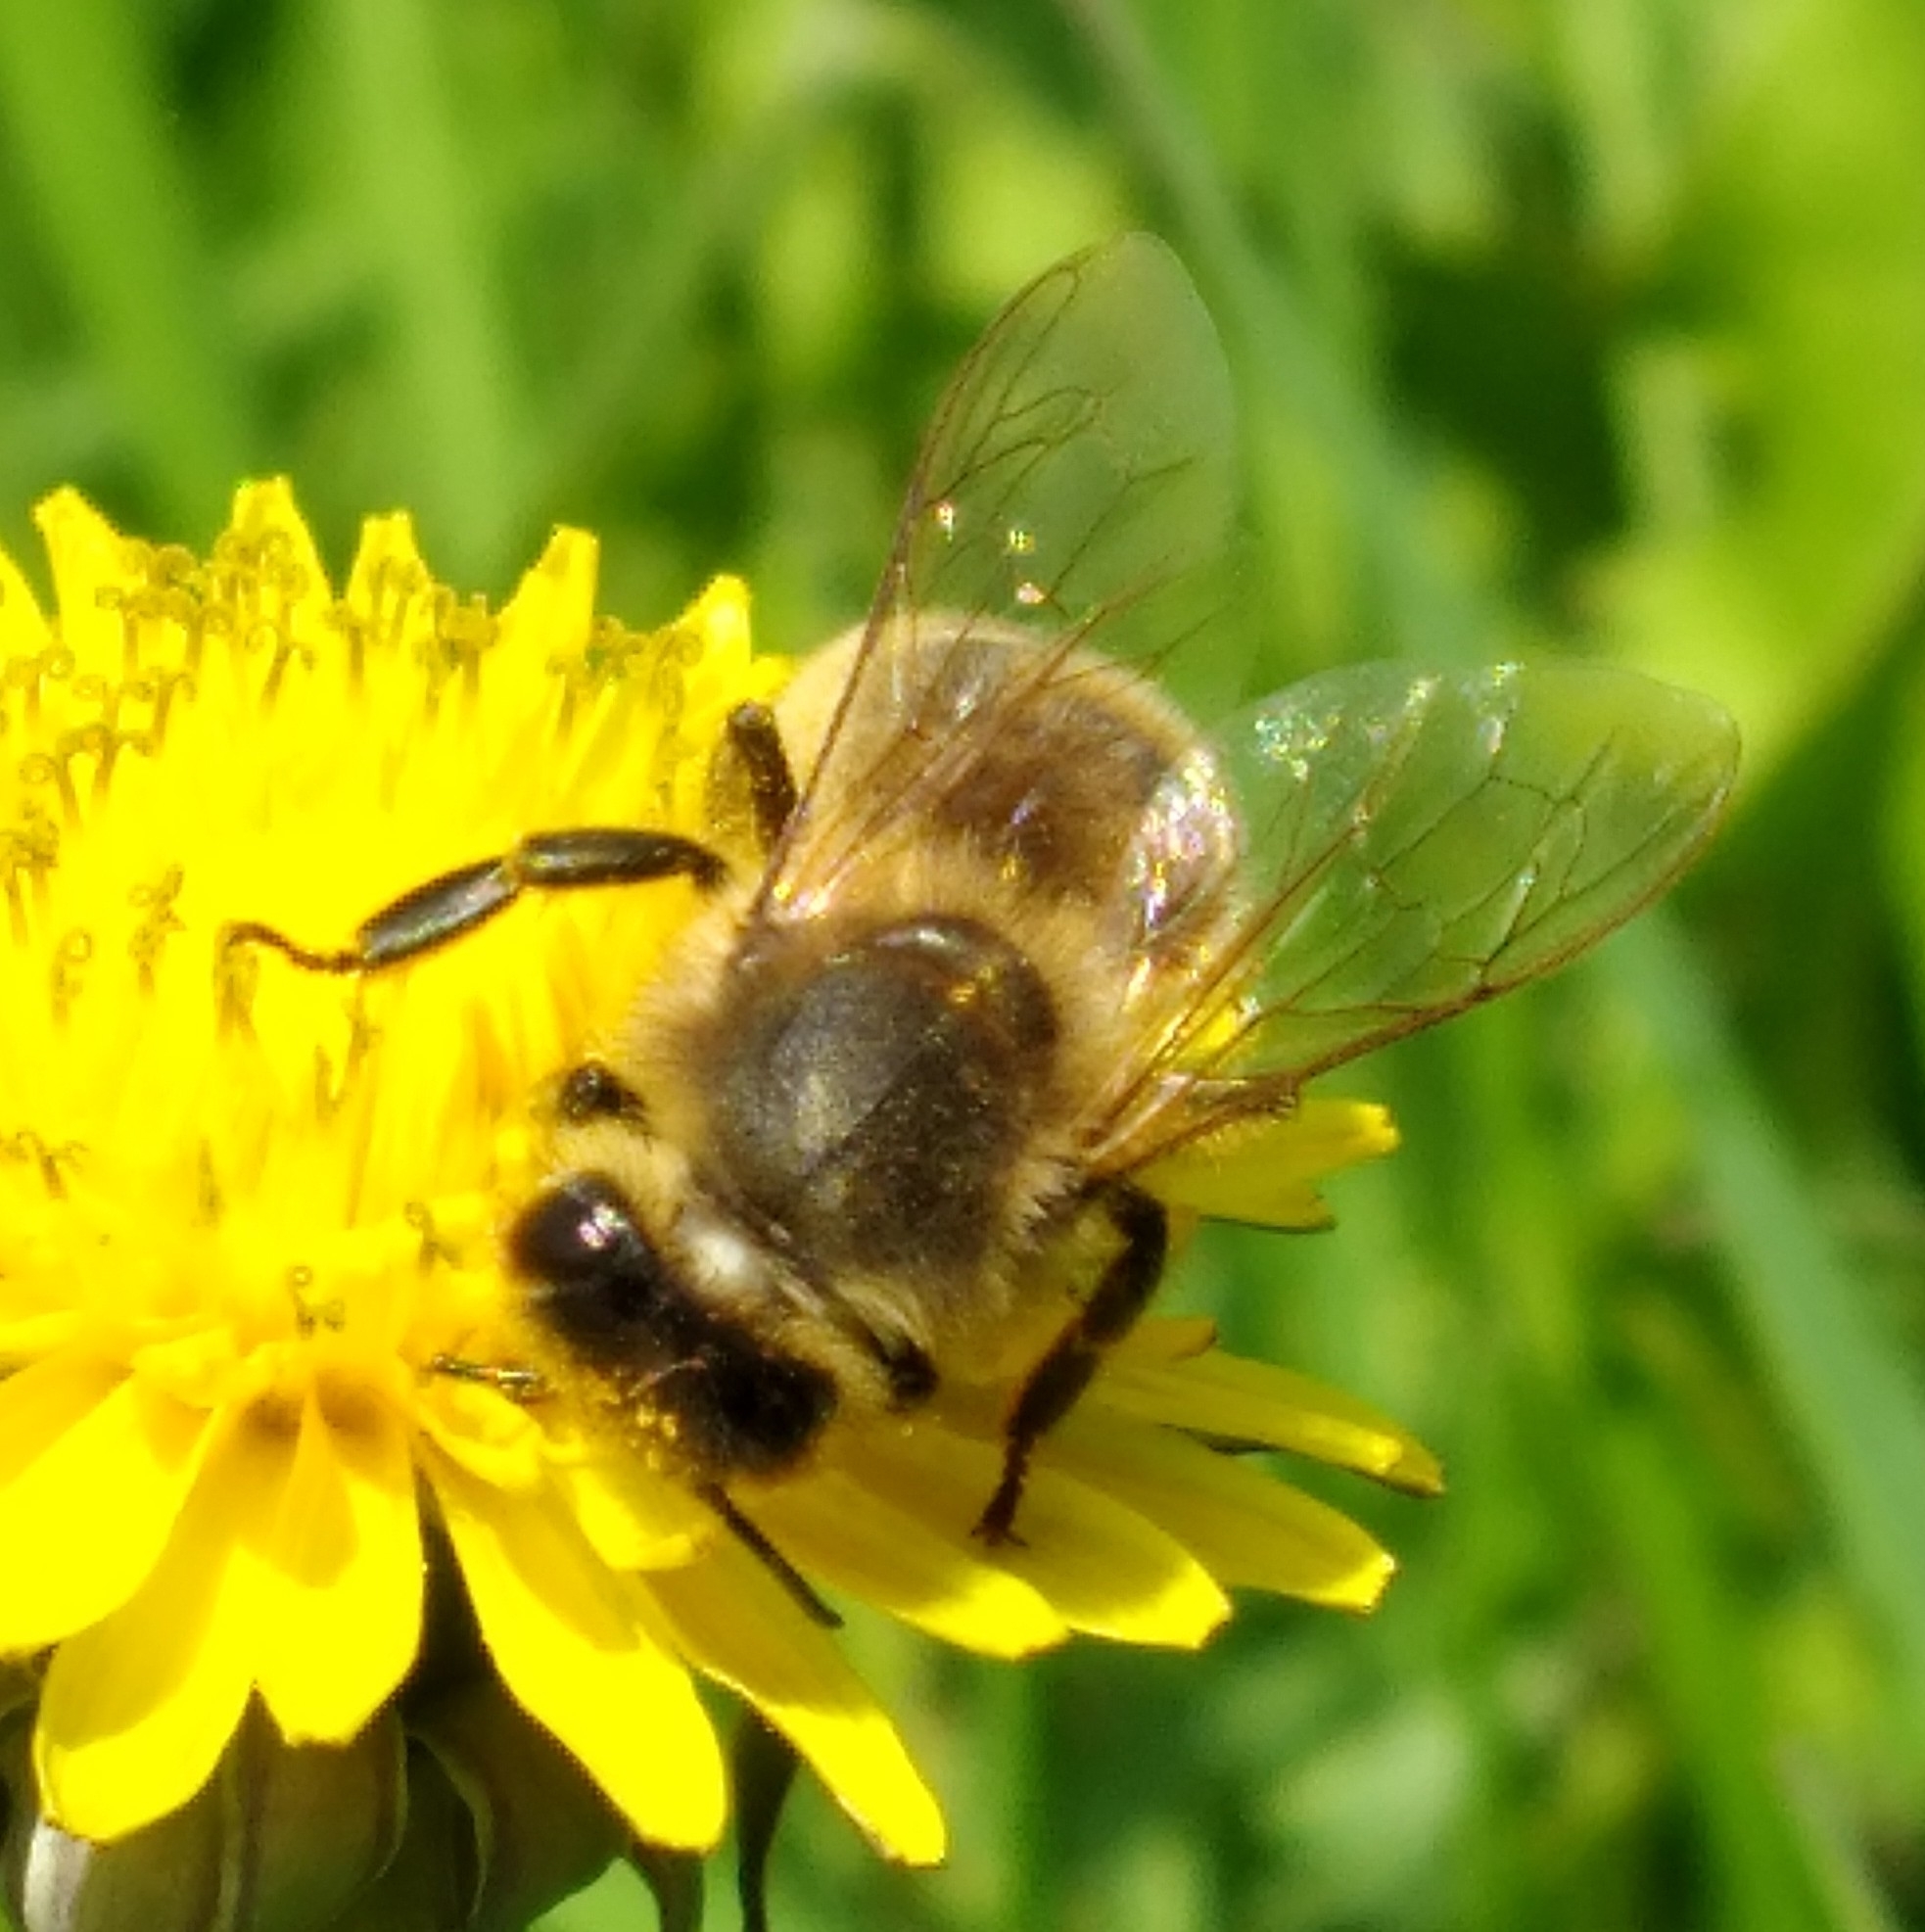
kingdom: Animalia
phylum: Arthropoda
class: Insecta
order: Hymenoptera
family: Apidae
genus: Apis
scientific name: Apis mellifera
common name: Honey bee
